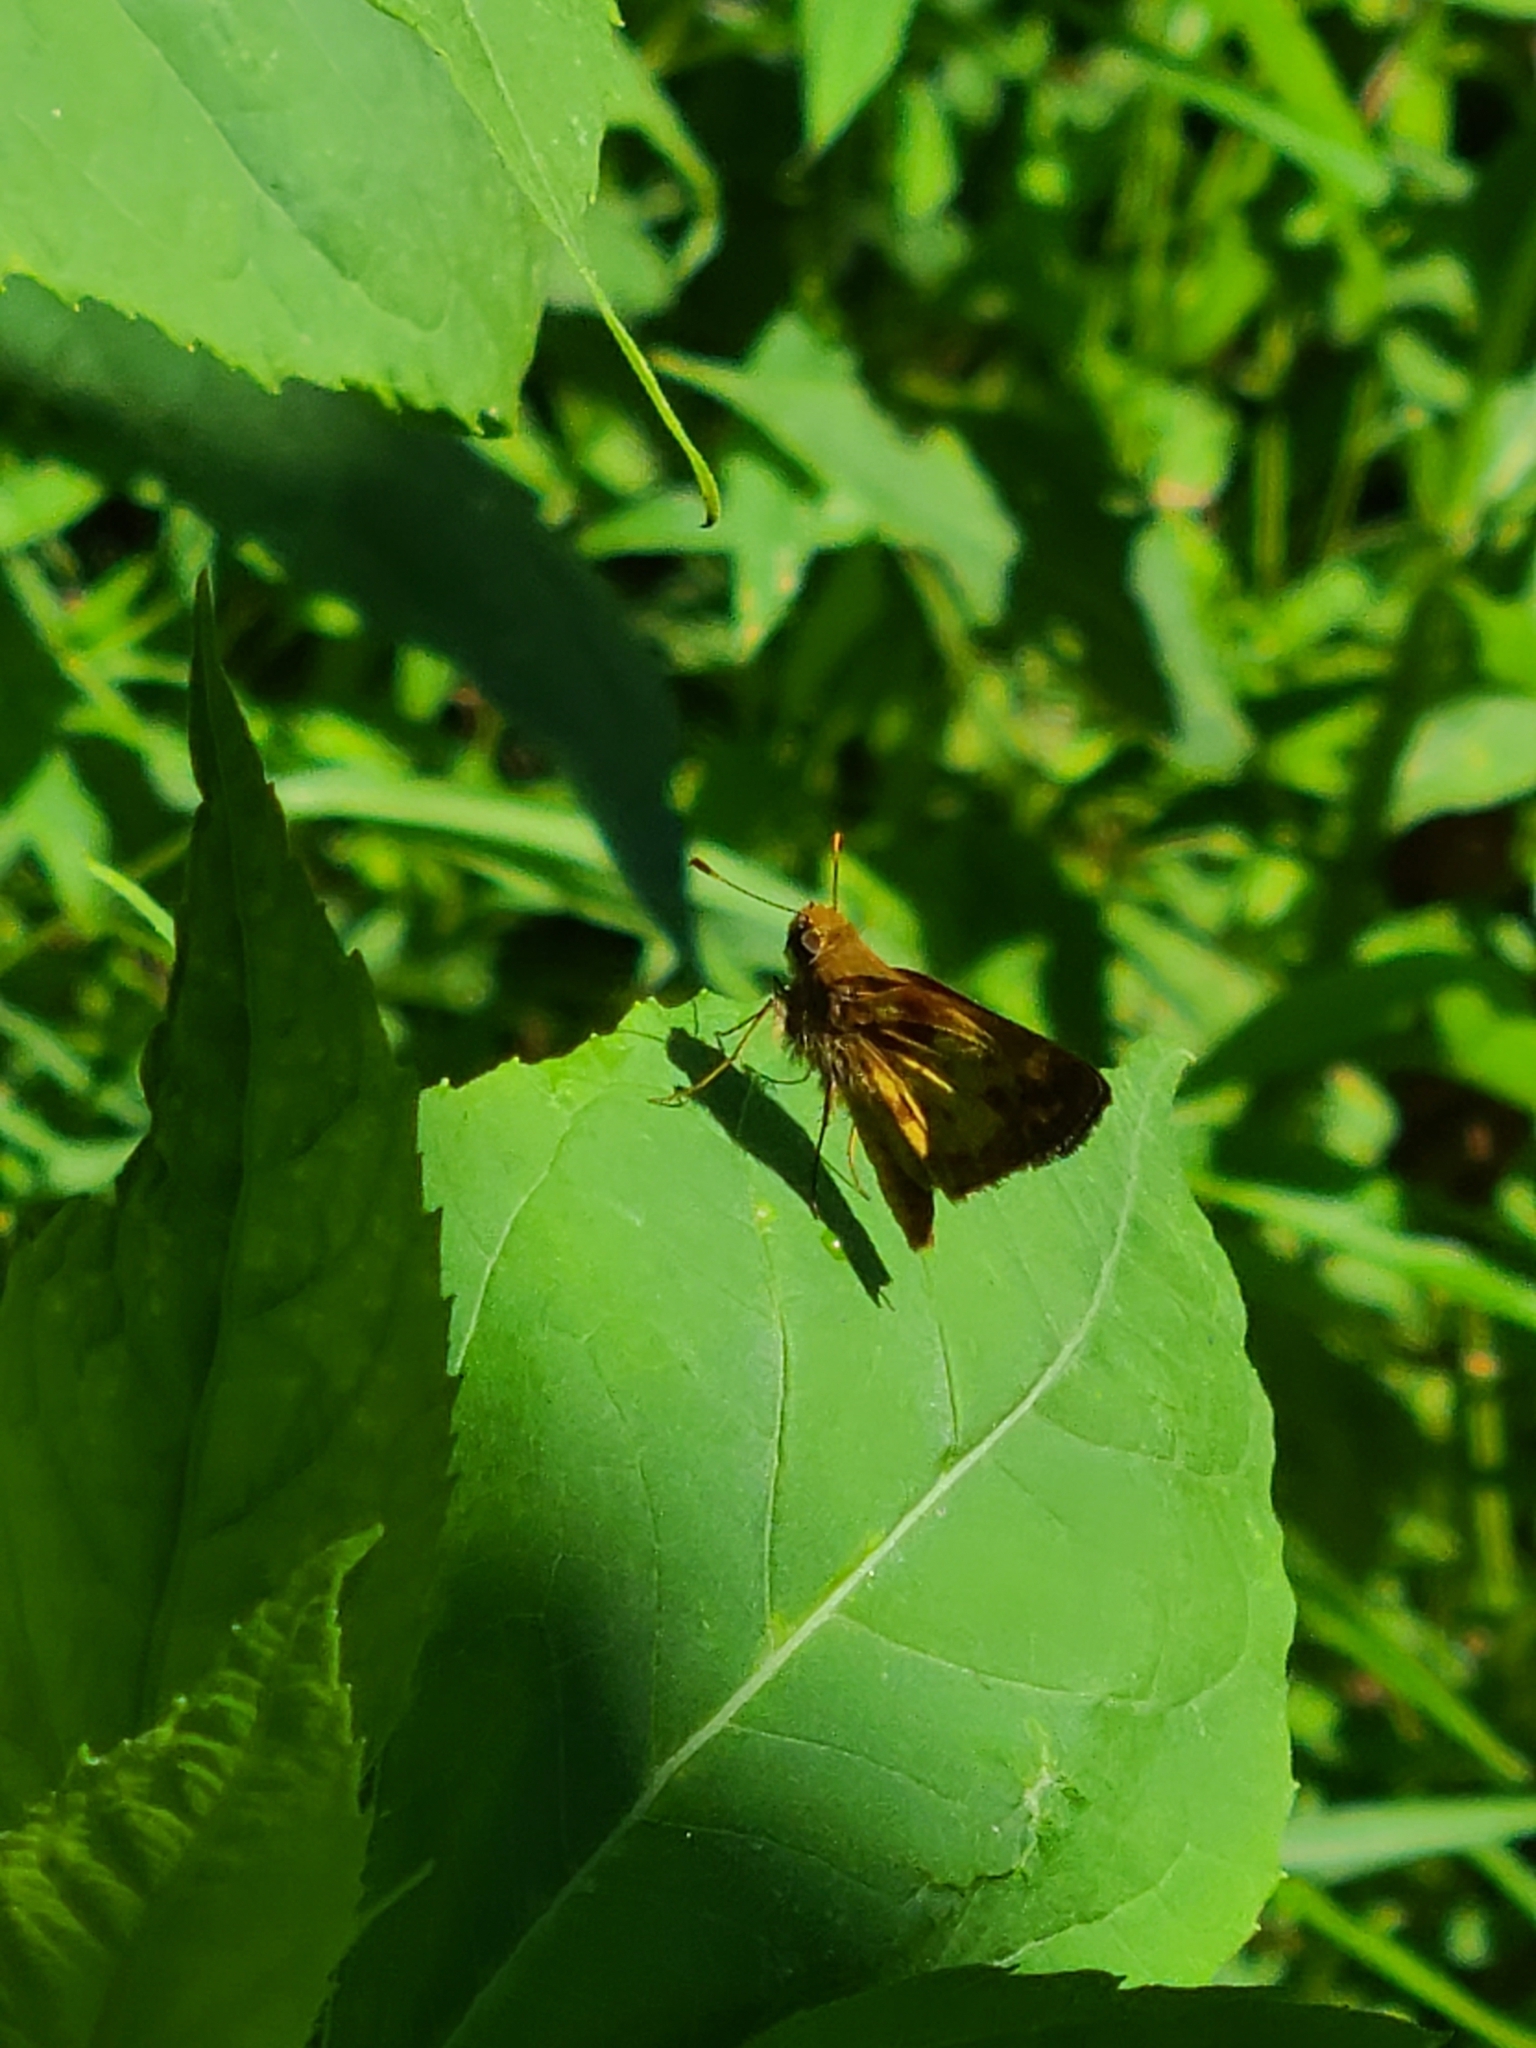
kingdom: Animalia
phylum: Arthropoda
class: Insecta
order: Lepidoptera
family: Hesperiidae
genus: Lon
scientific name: Lon zabulon
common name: Zabulon skipper
